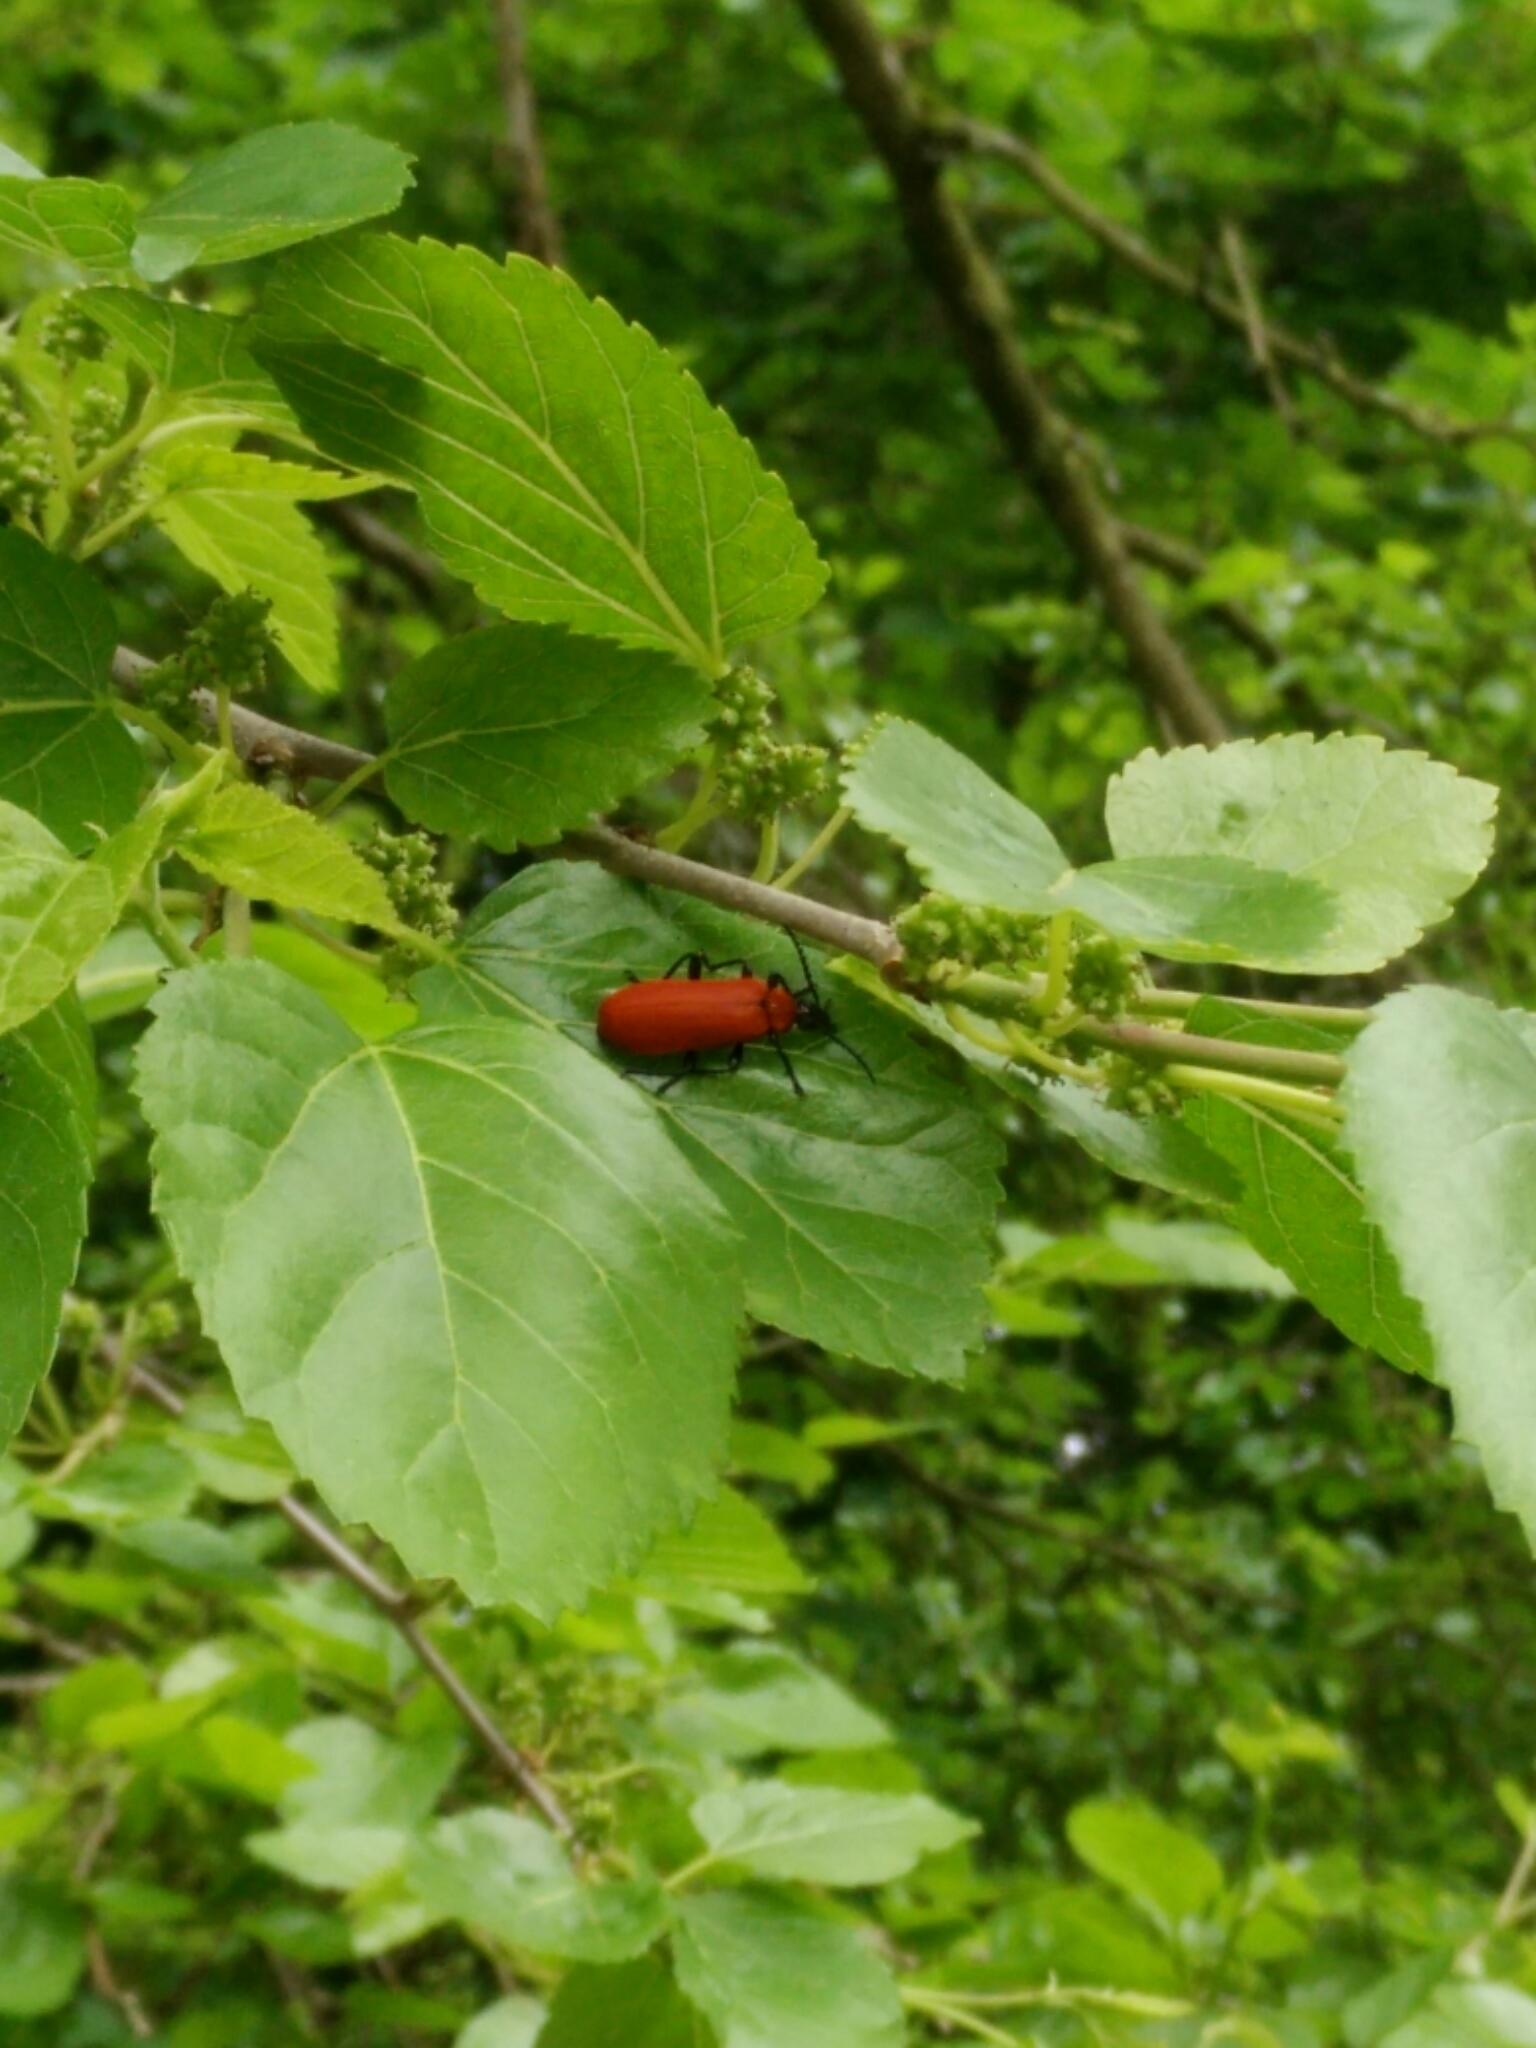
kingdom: Animalia
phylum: Arthropoda
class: Insecta
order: Coleoptera
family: Pyrochroidae
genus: Pyrochroa
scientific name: Pyrochroa coccinea
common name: Black-headed cardinal beetle
